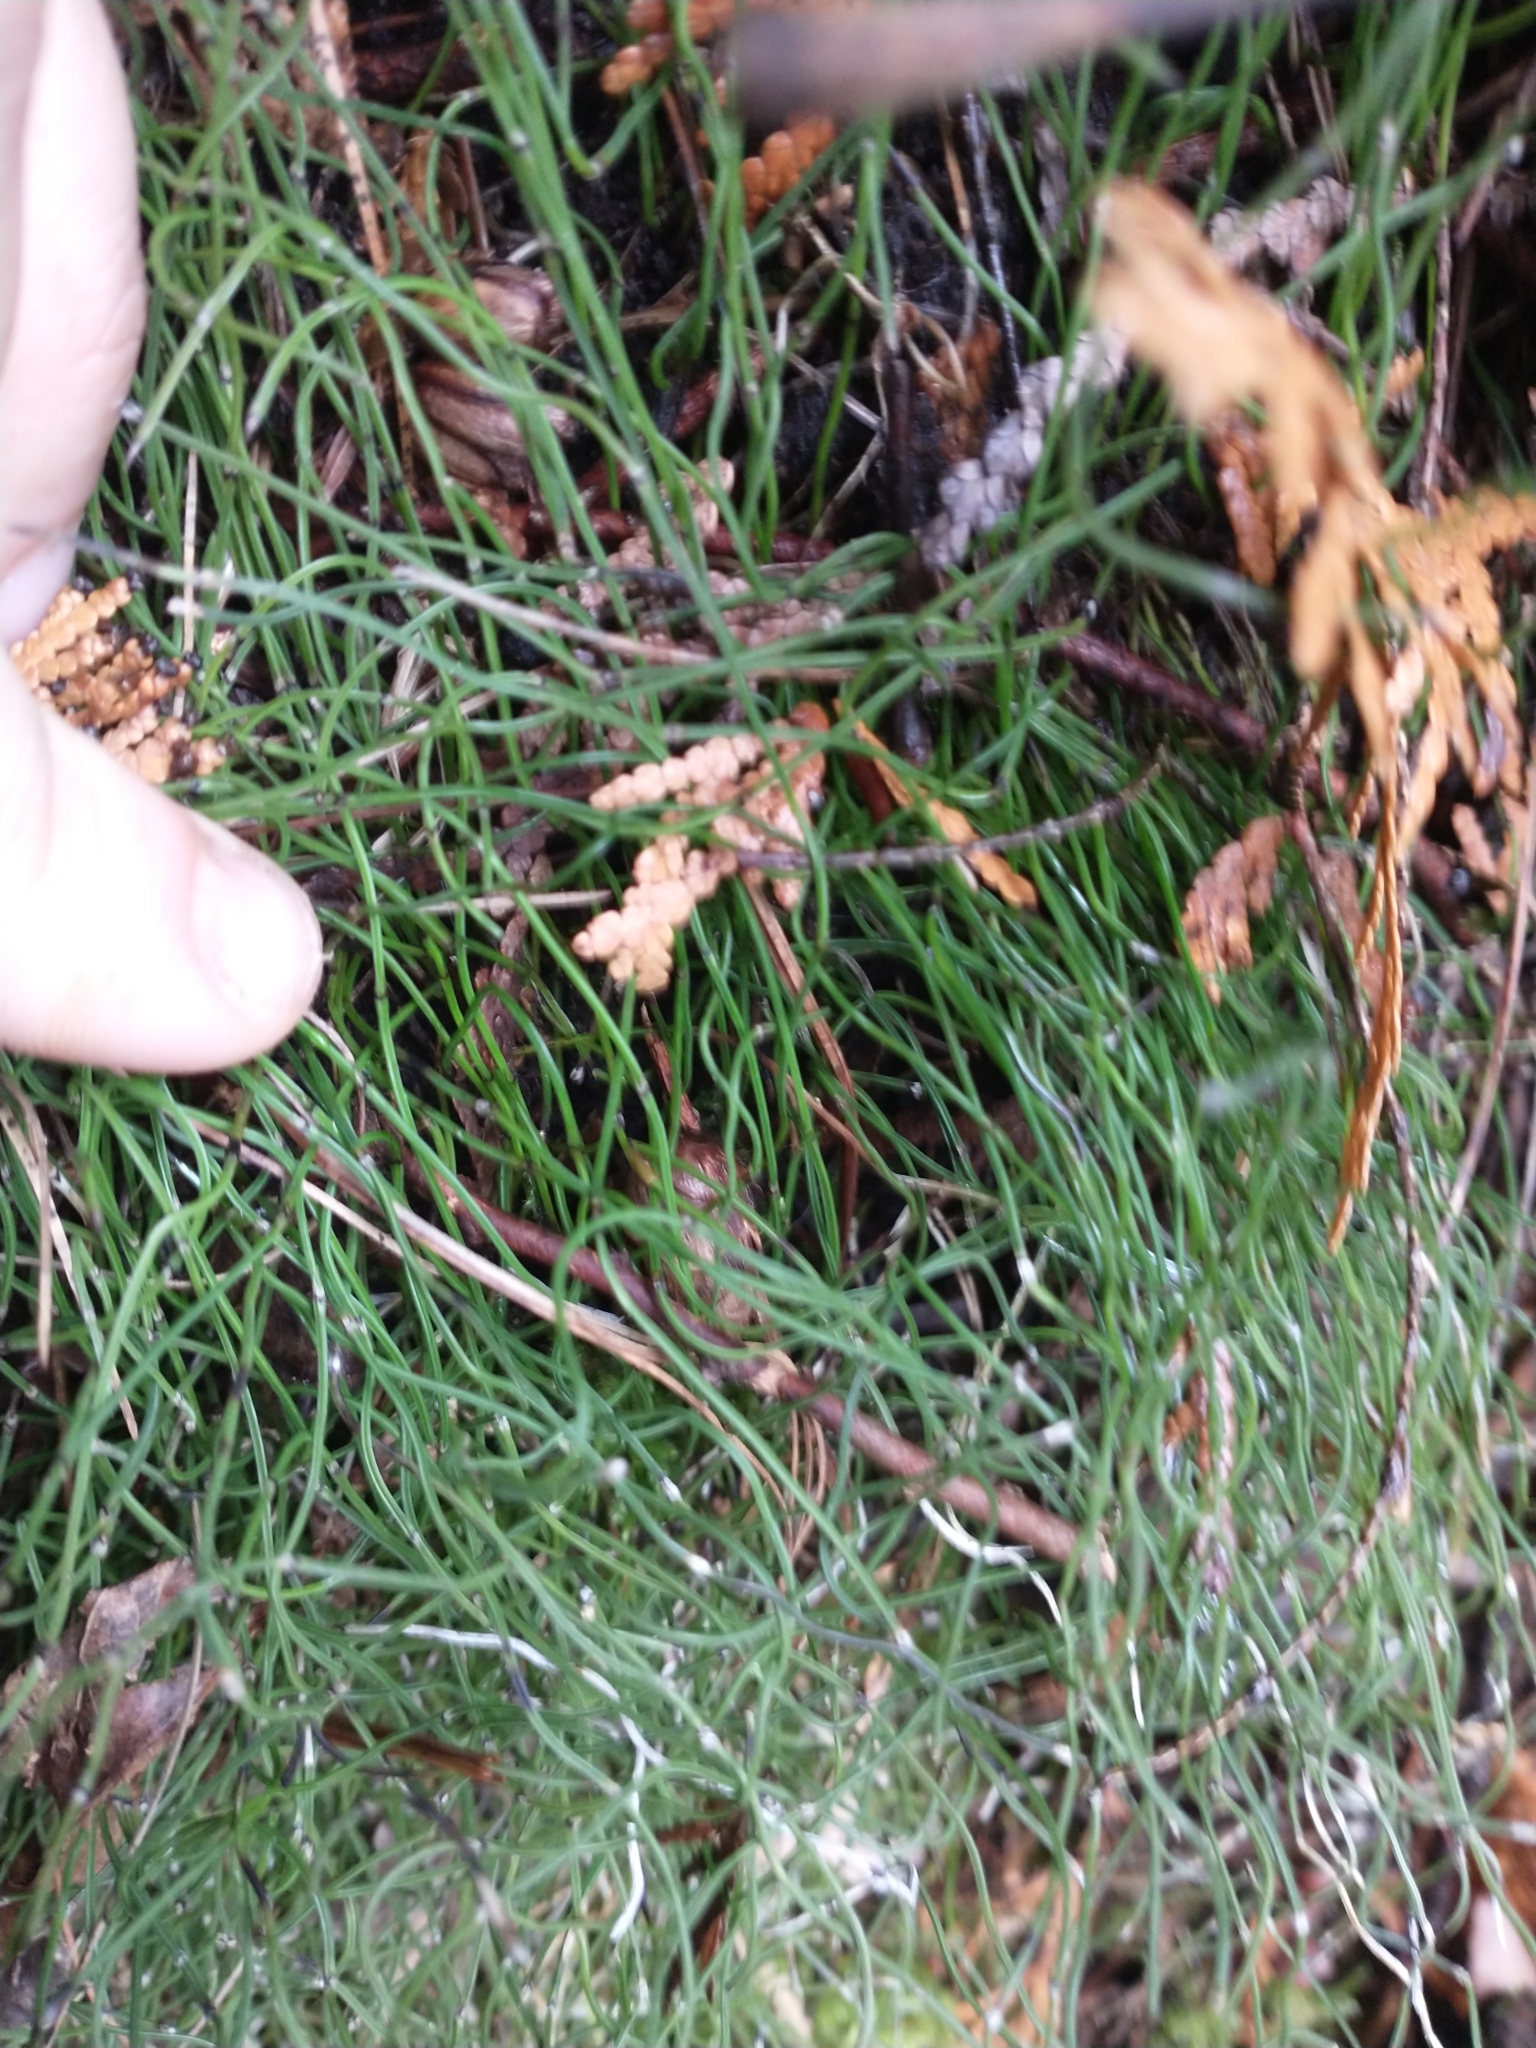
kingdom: Plantae
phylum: Tracheophyta
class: Polypodiopsida
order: Equisetales
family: Equisetaceae
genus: Equisetum
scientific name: Equisetum scirpoides
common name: Delicate horsetail
